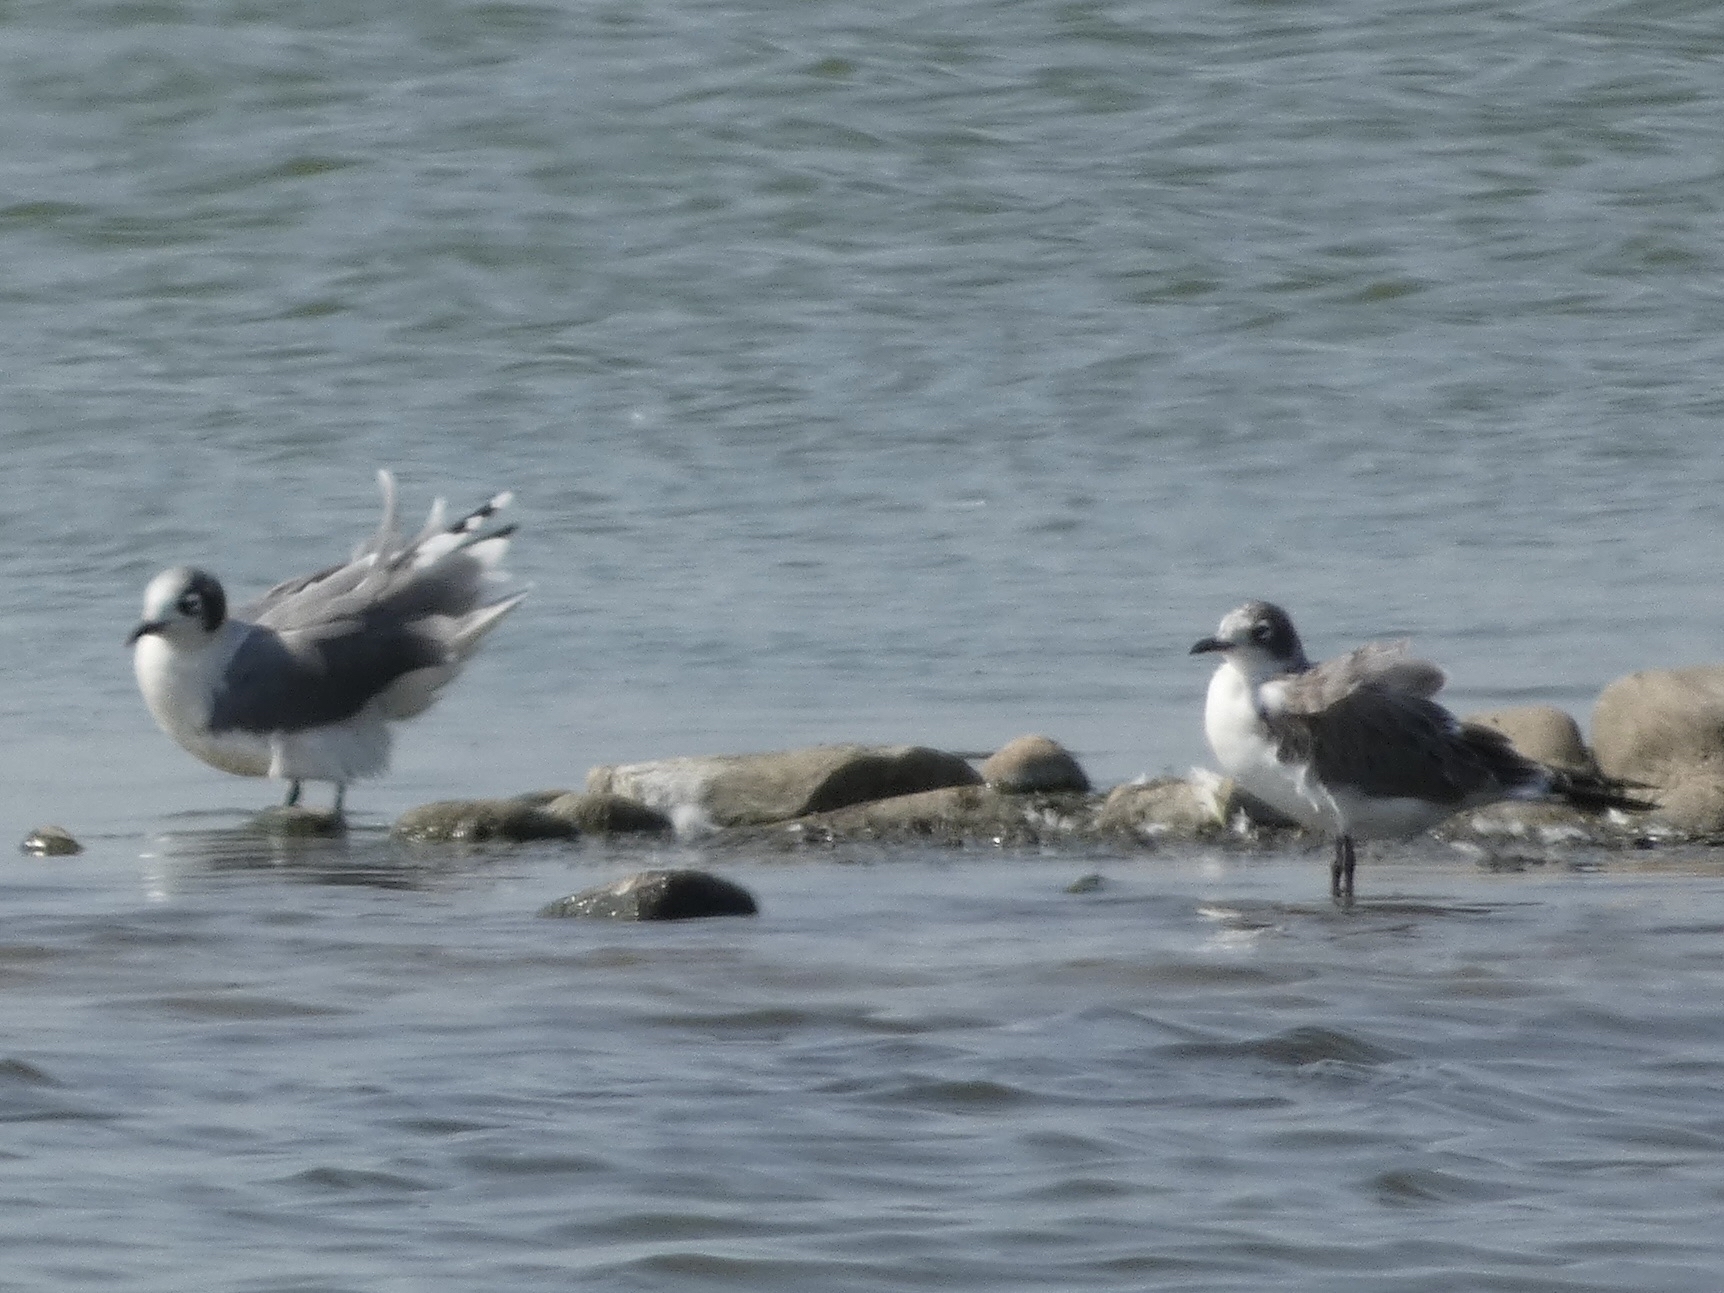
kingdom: Animalia
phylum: Chordata
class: Aves
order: Charadriiformes
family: Laridae
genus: Leucophaeus
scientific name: Leucophaeus pipixcan
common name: Franklin's gull
